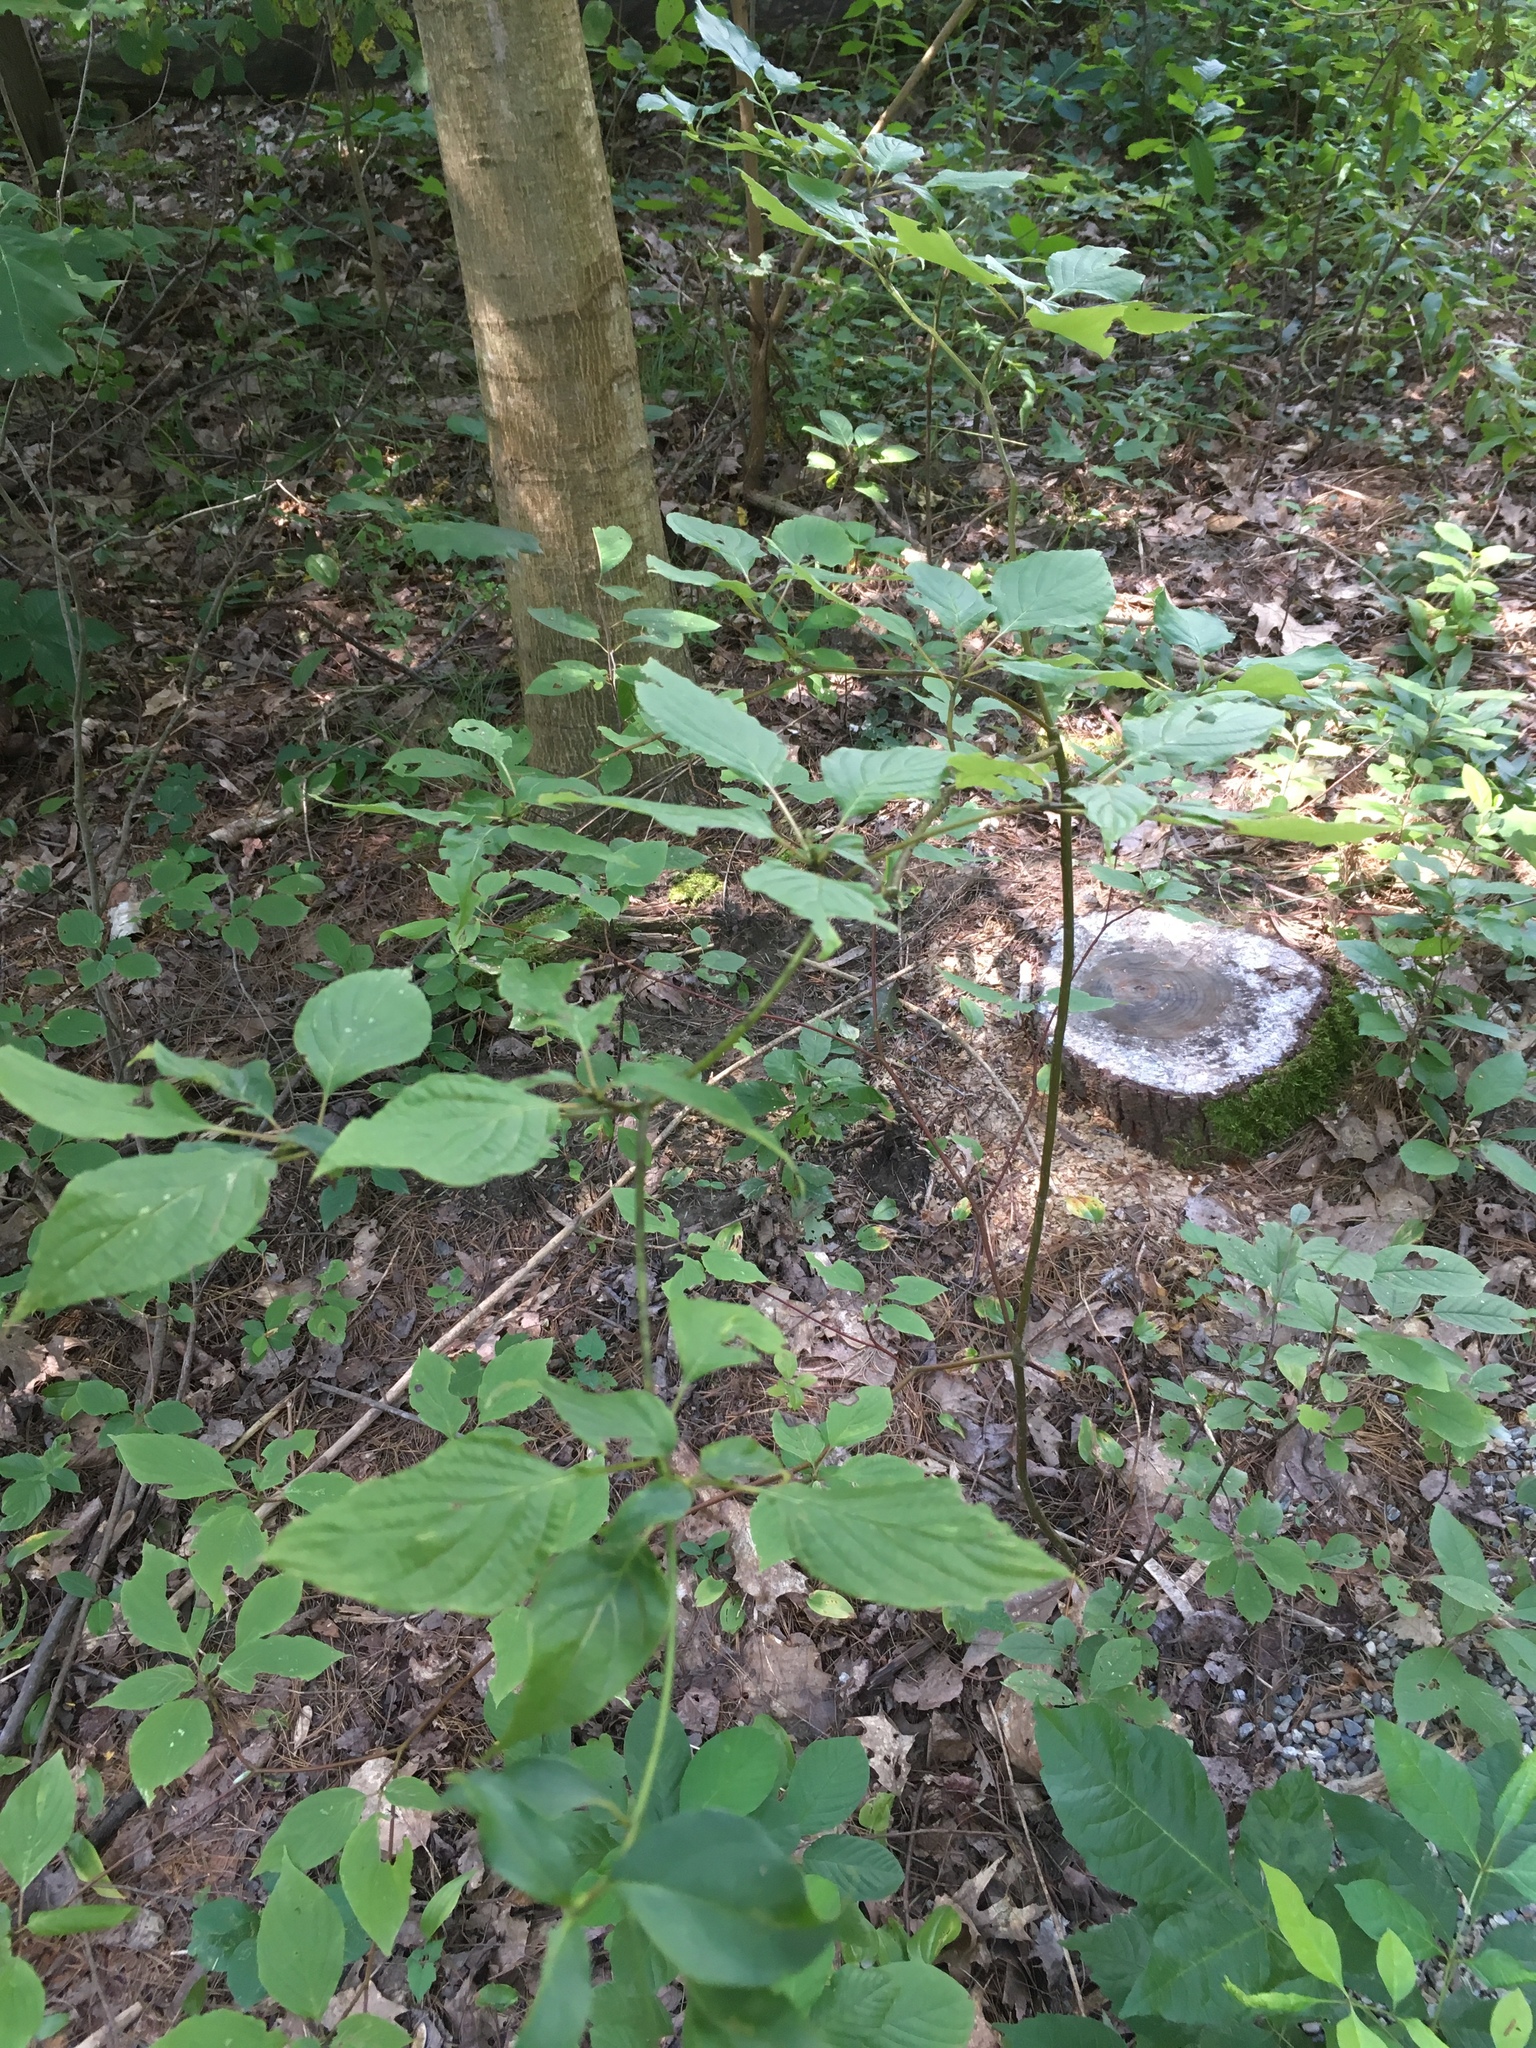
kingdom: Plantae
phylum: Tracheophyta
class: Magnoliopsida
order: Cornales
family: Cornaceae
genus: Cornus
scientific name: Cornus alternifolia
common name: Pagoda dogwood
